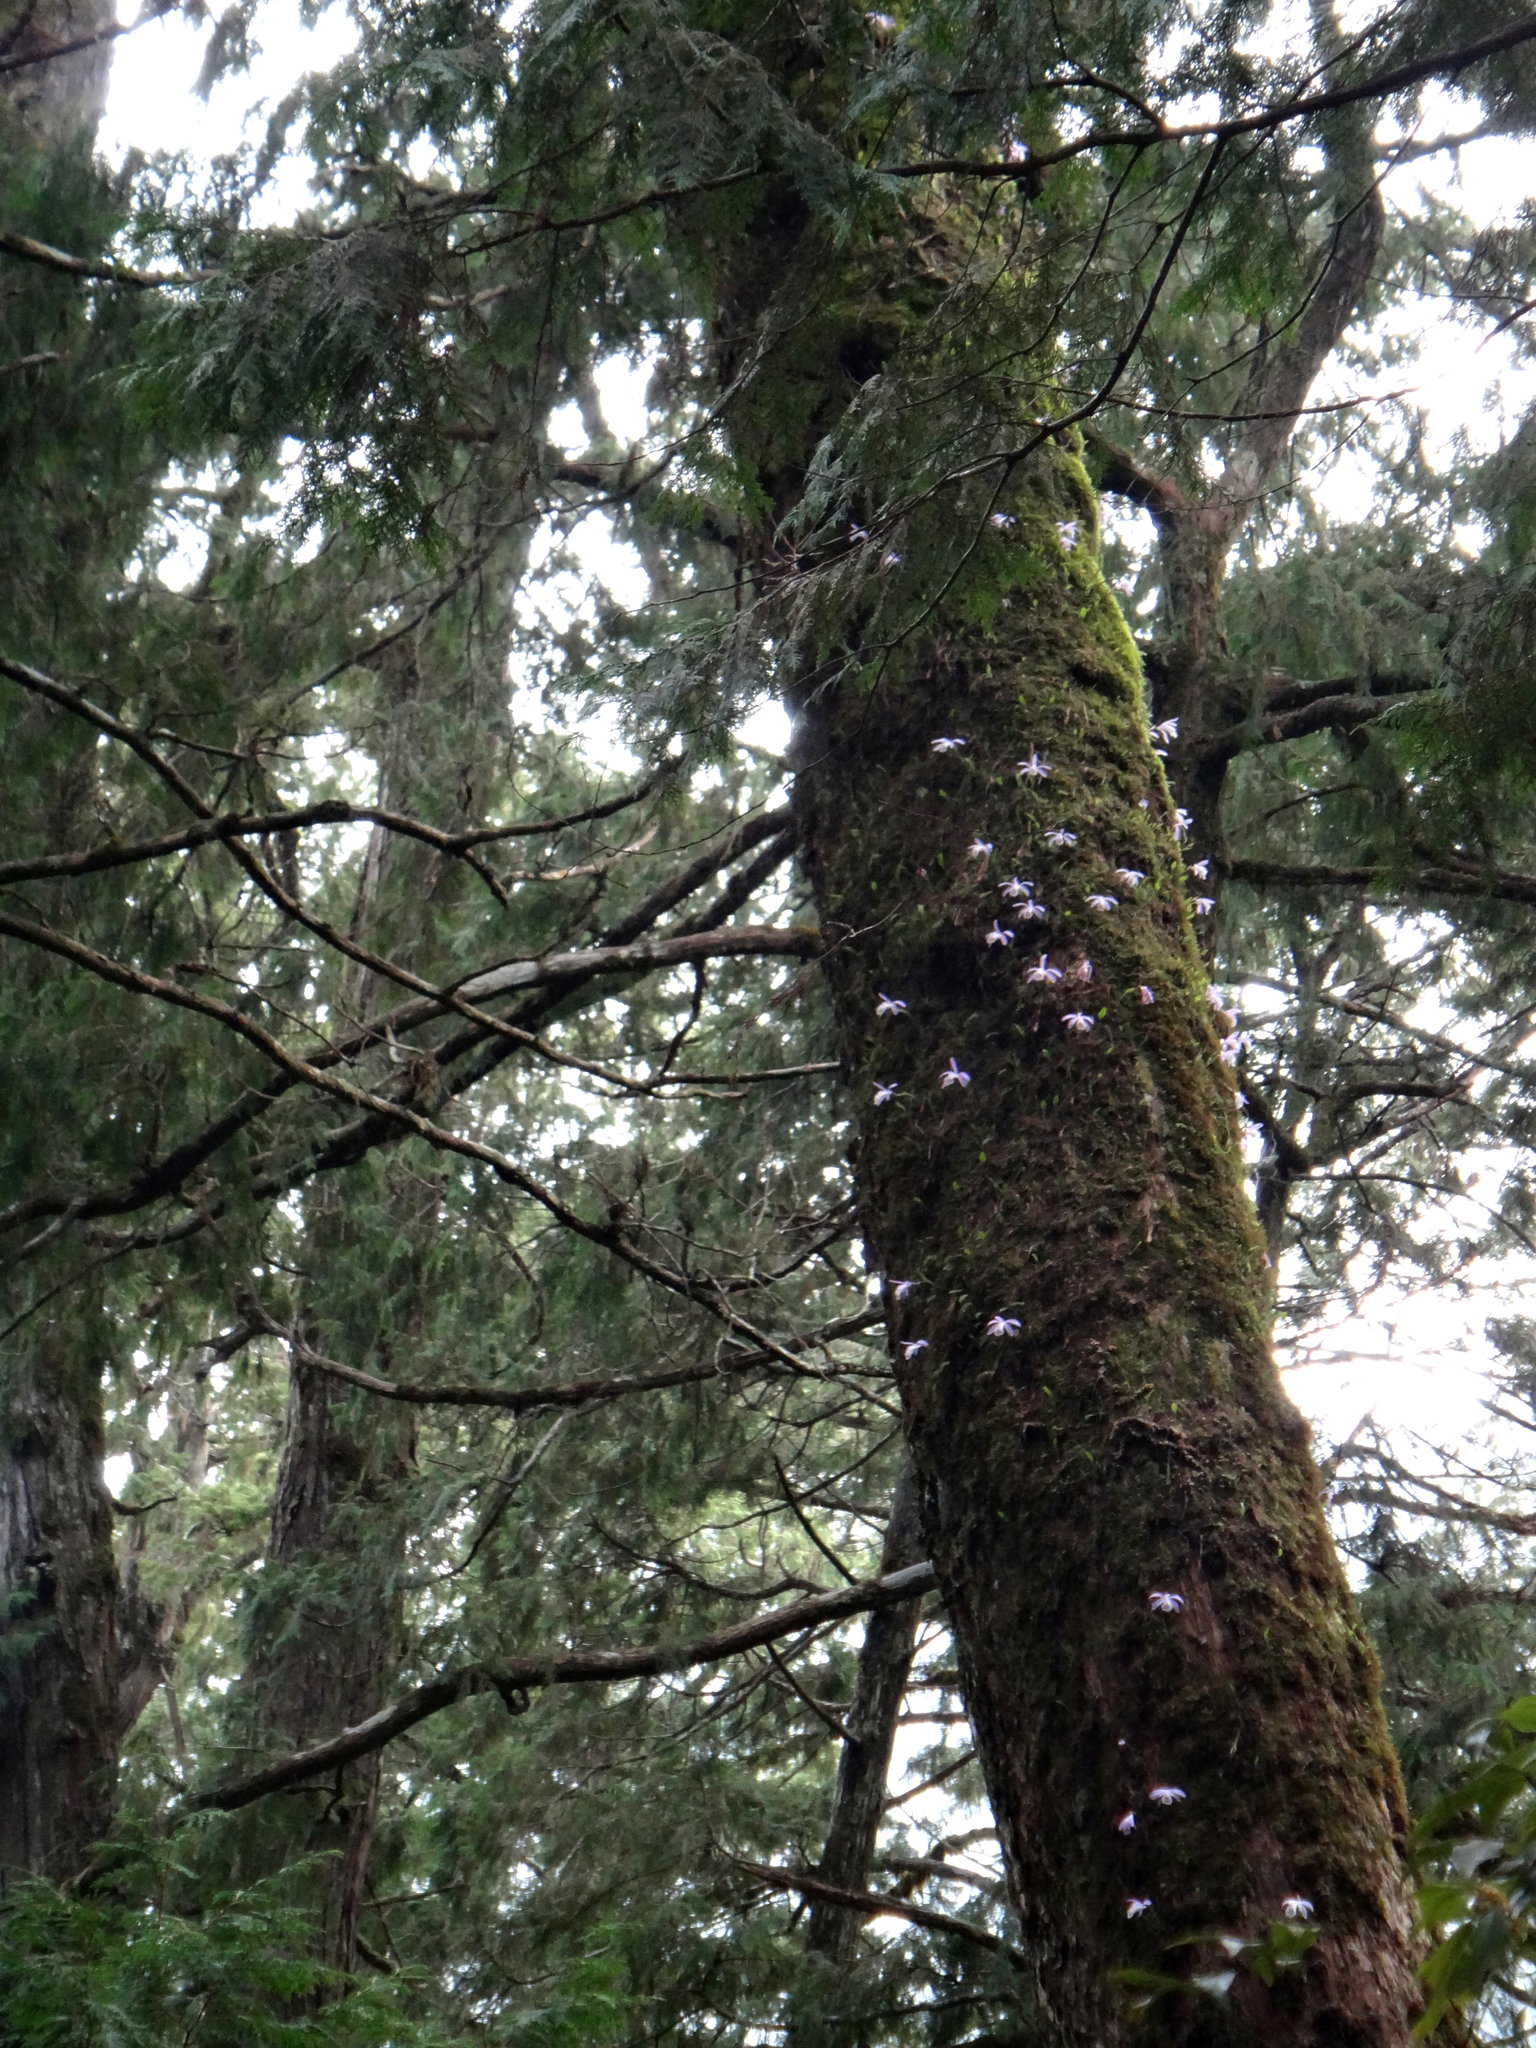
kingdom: Plantae
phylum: Tracheophyta
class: Liliopsida
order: Asparagales
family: Orchidaceae
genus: Pleione
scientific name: Pleione formosana
